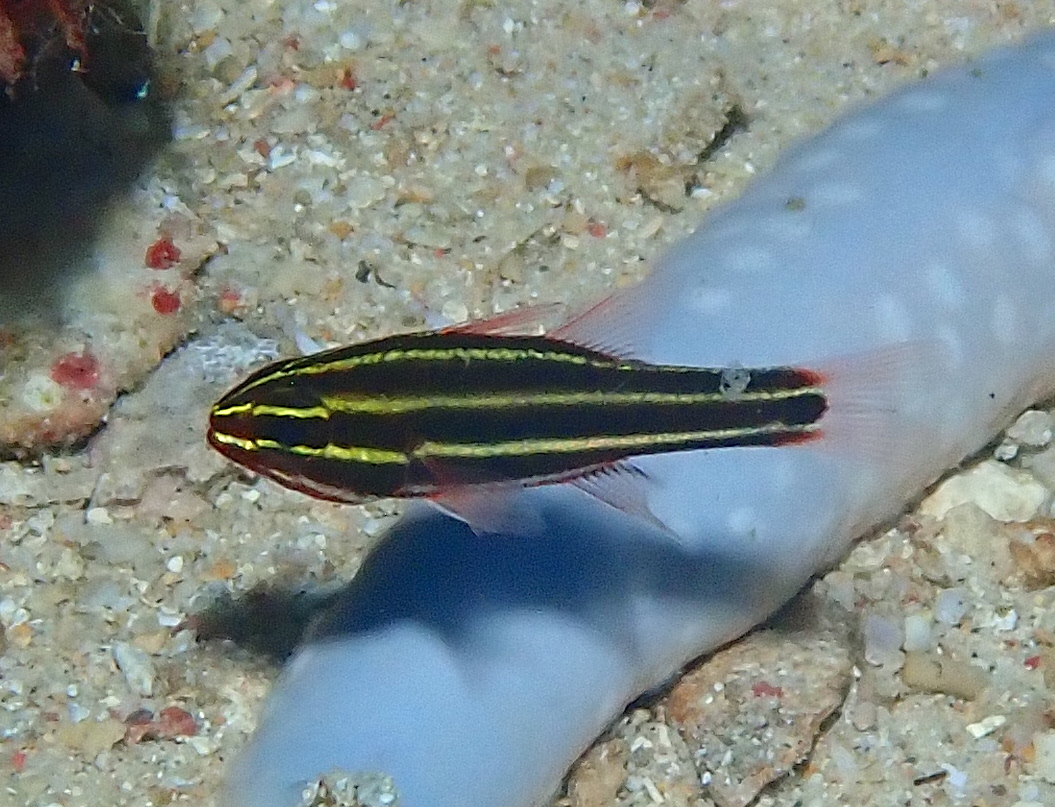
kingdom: Animalia
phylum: Chordata
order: Perciformes
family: Apogonidae
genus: Ostorhinchus
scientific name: Ostorhinchus nigrofasciatus
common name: Blackstripe cardinalfish
